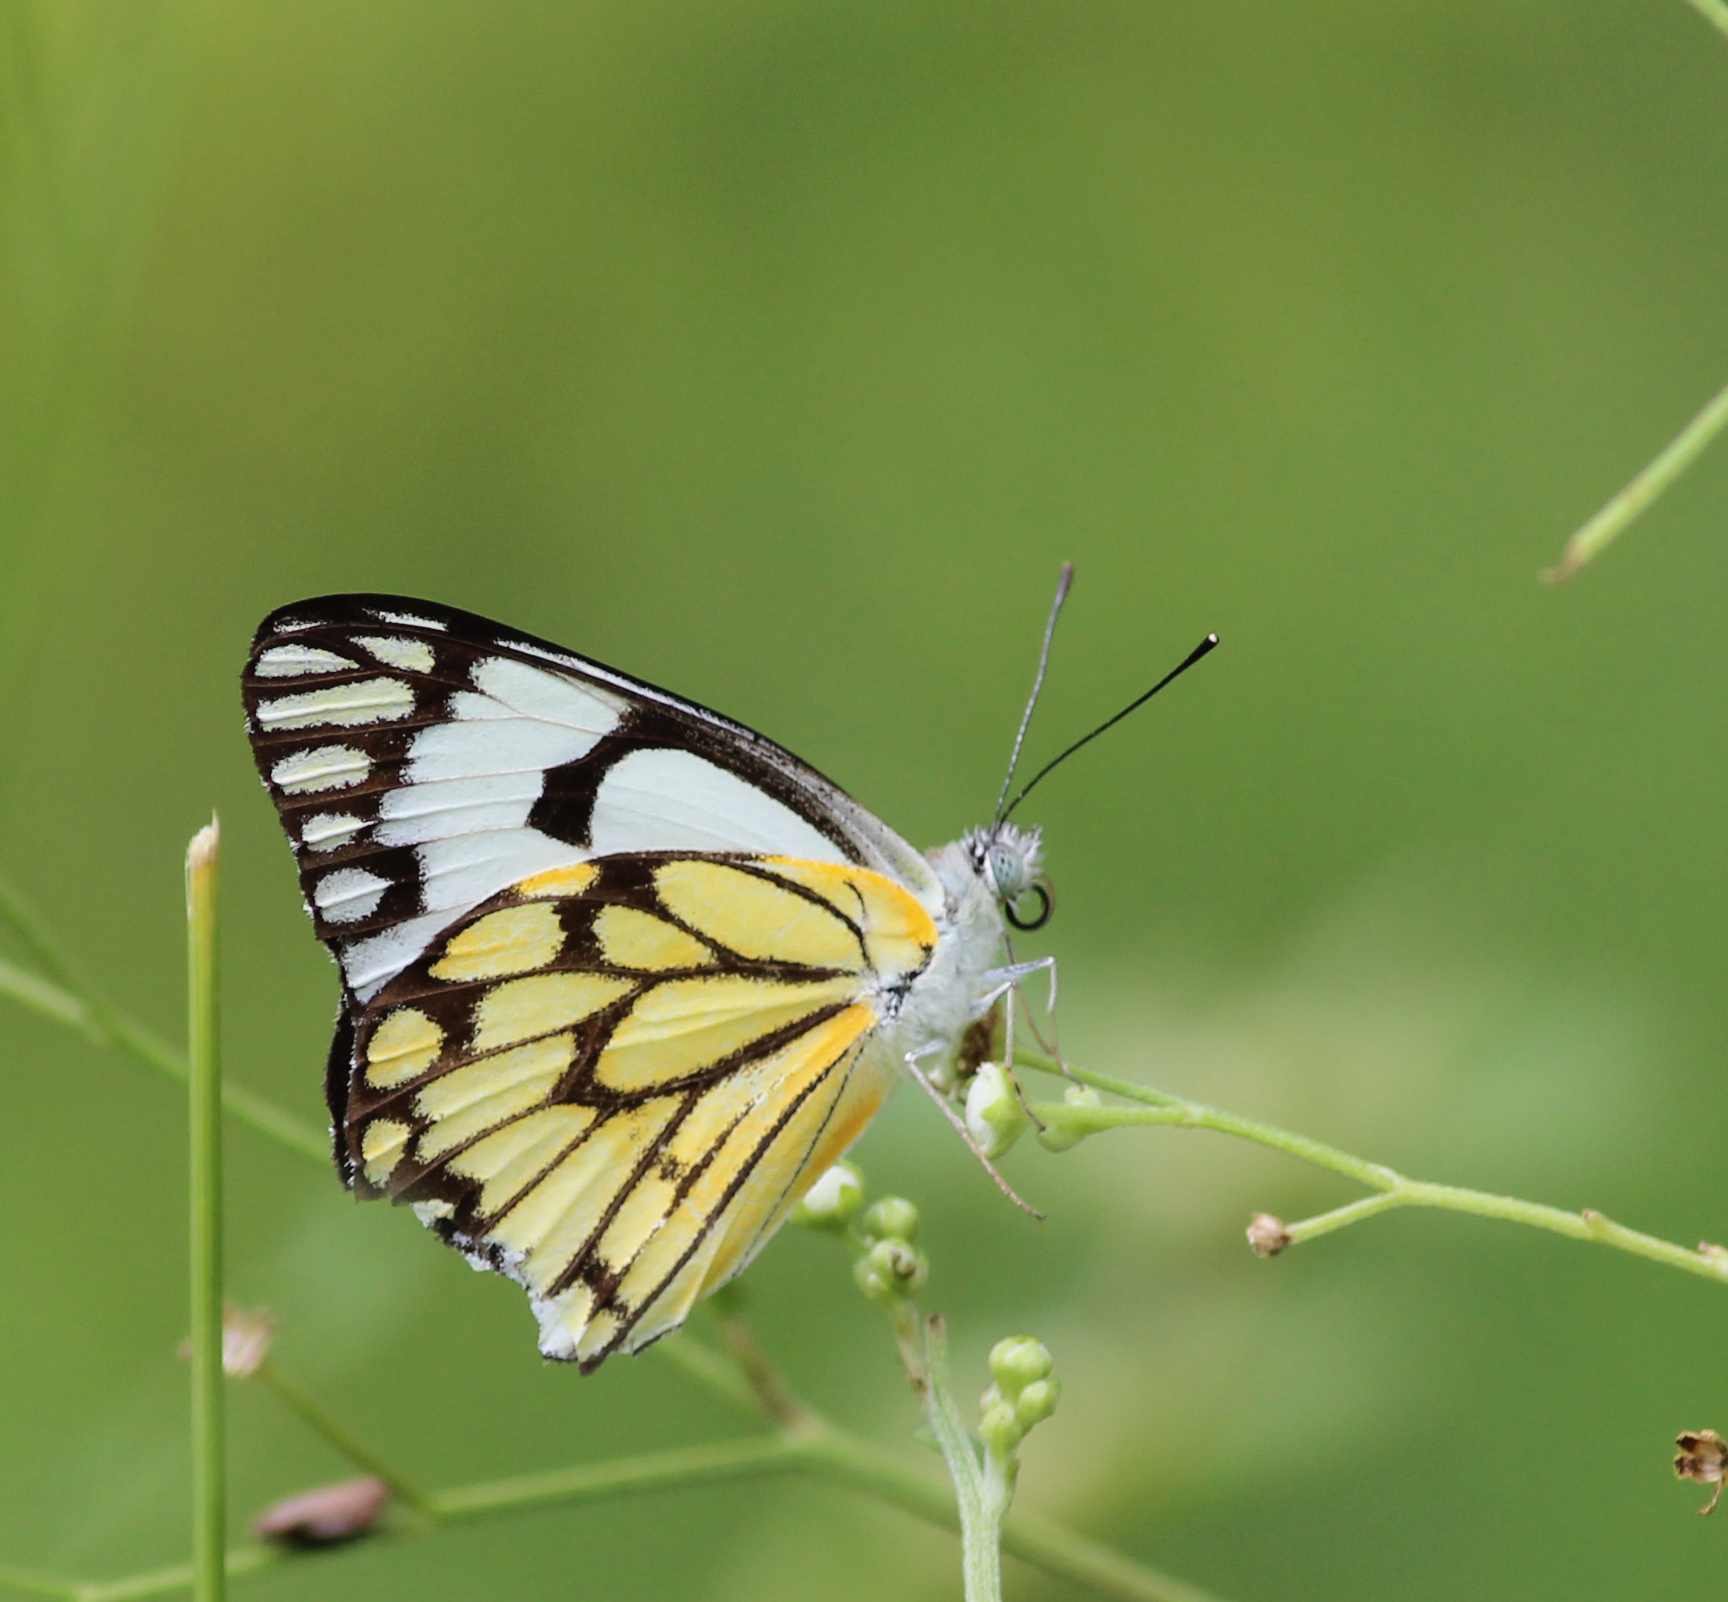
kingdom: Animalia
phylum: Arthropoda
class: Insecta
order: Lepidoptera
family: Pieridae
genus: Belenois
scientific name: Belenois aurota
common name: Brown-veined white
